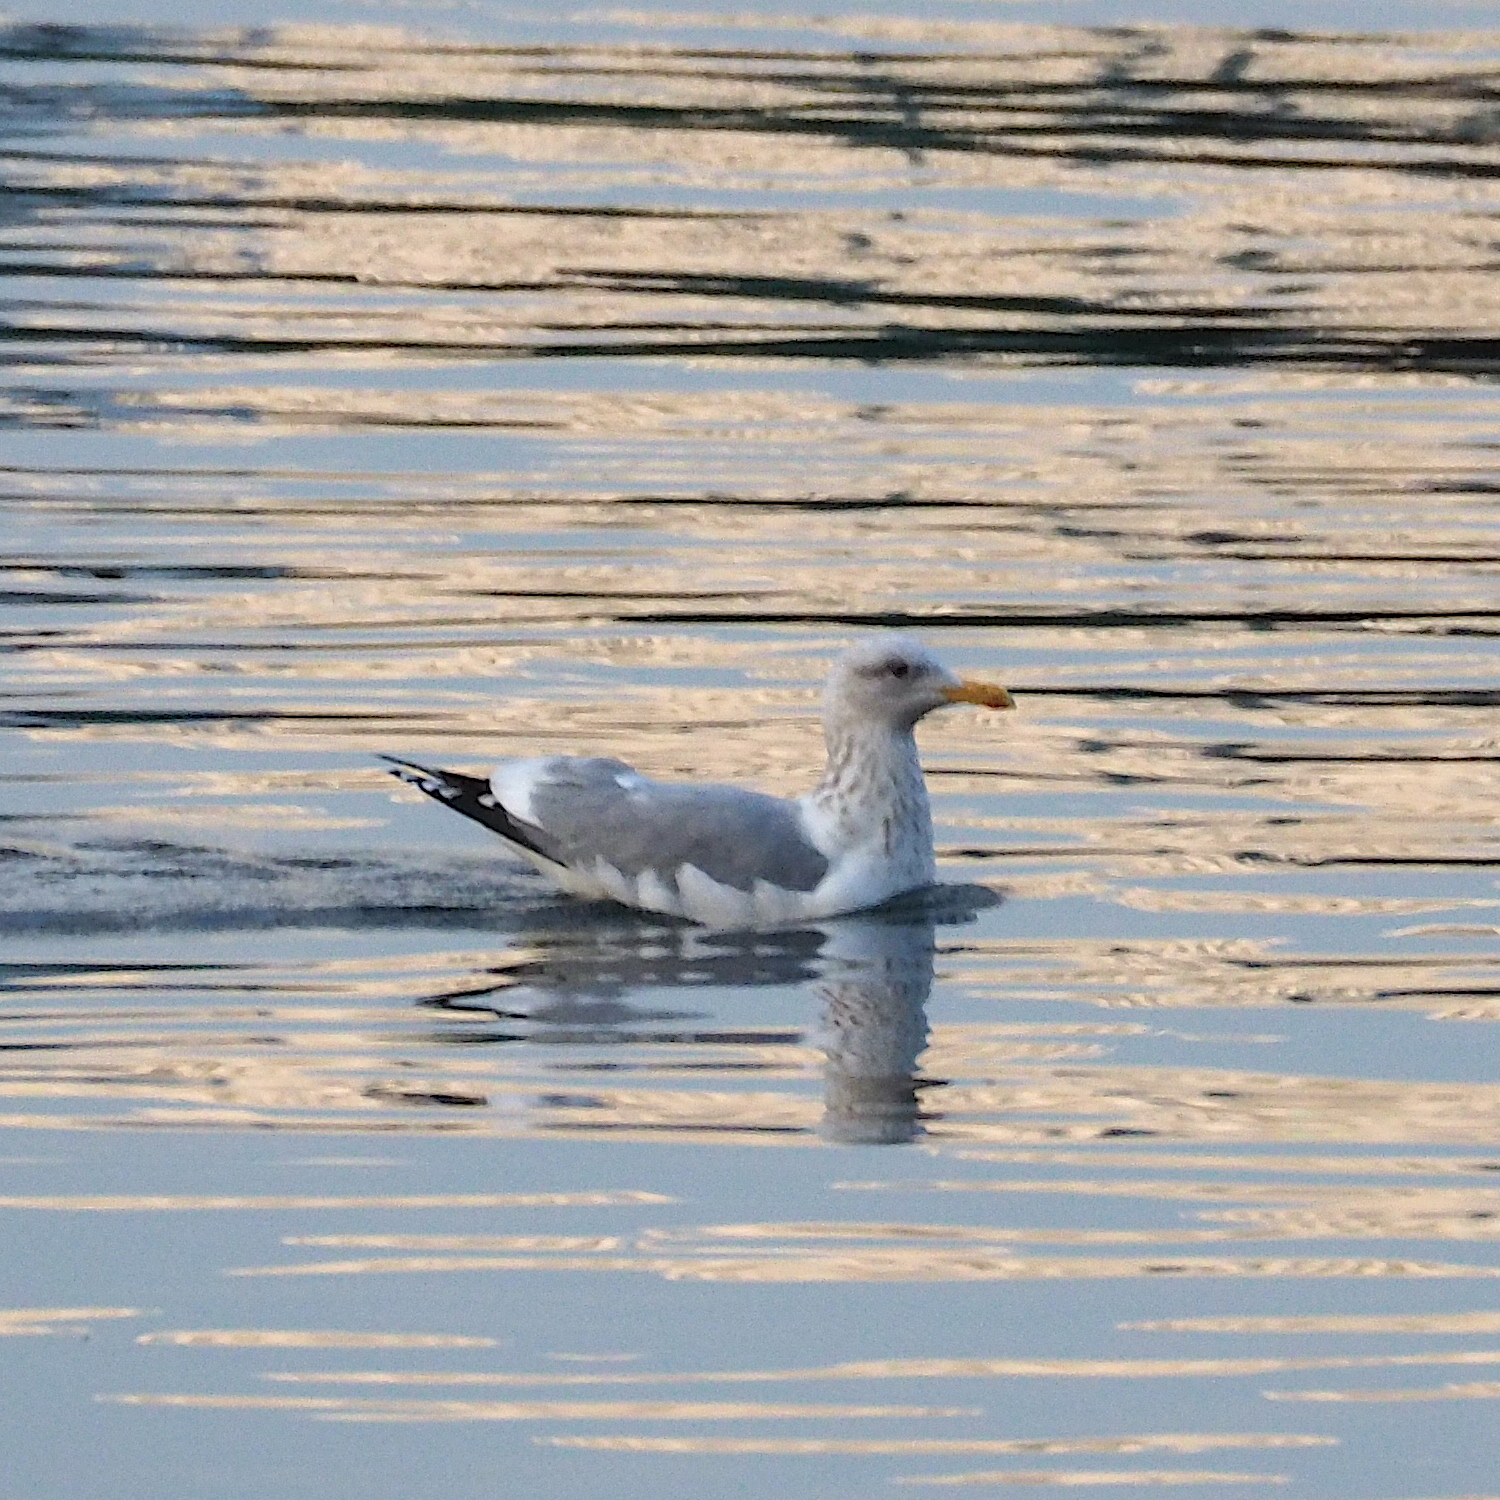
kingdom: Animalia
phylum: Chordata
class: Aves
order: Charadriiformes
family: Laridae
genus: Larus
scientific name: Larus argentatus
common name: Herring gull
